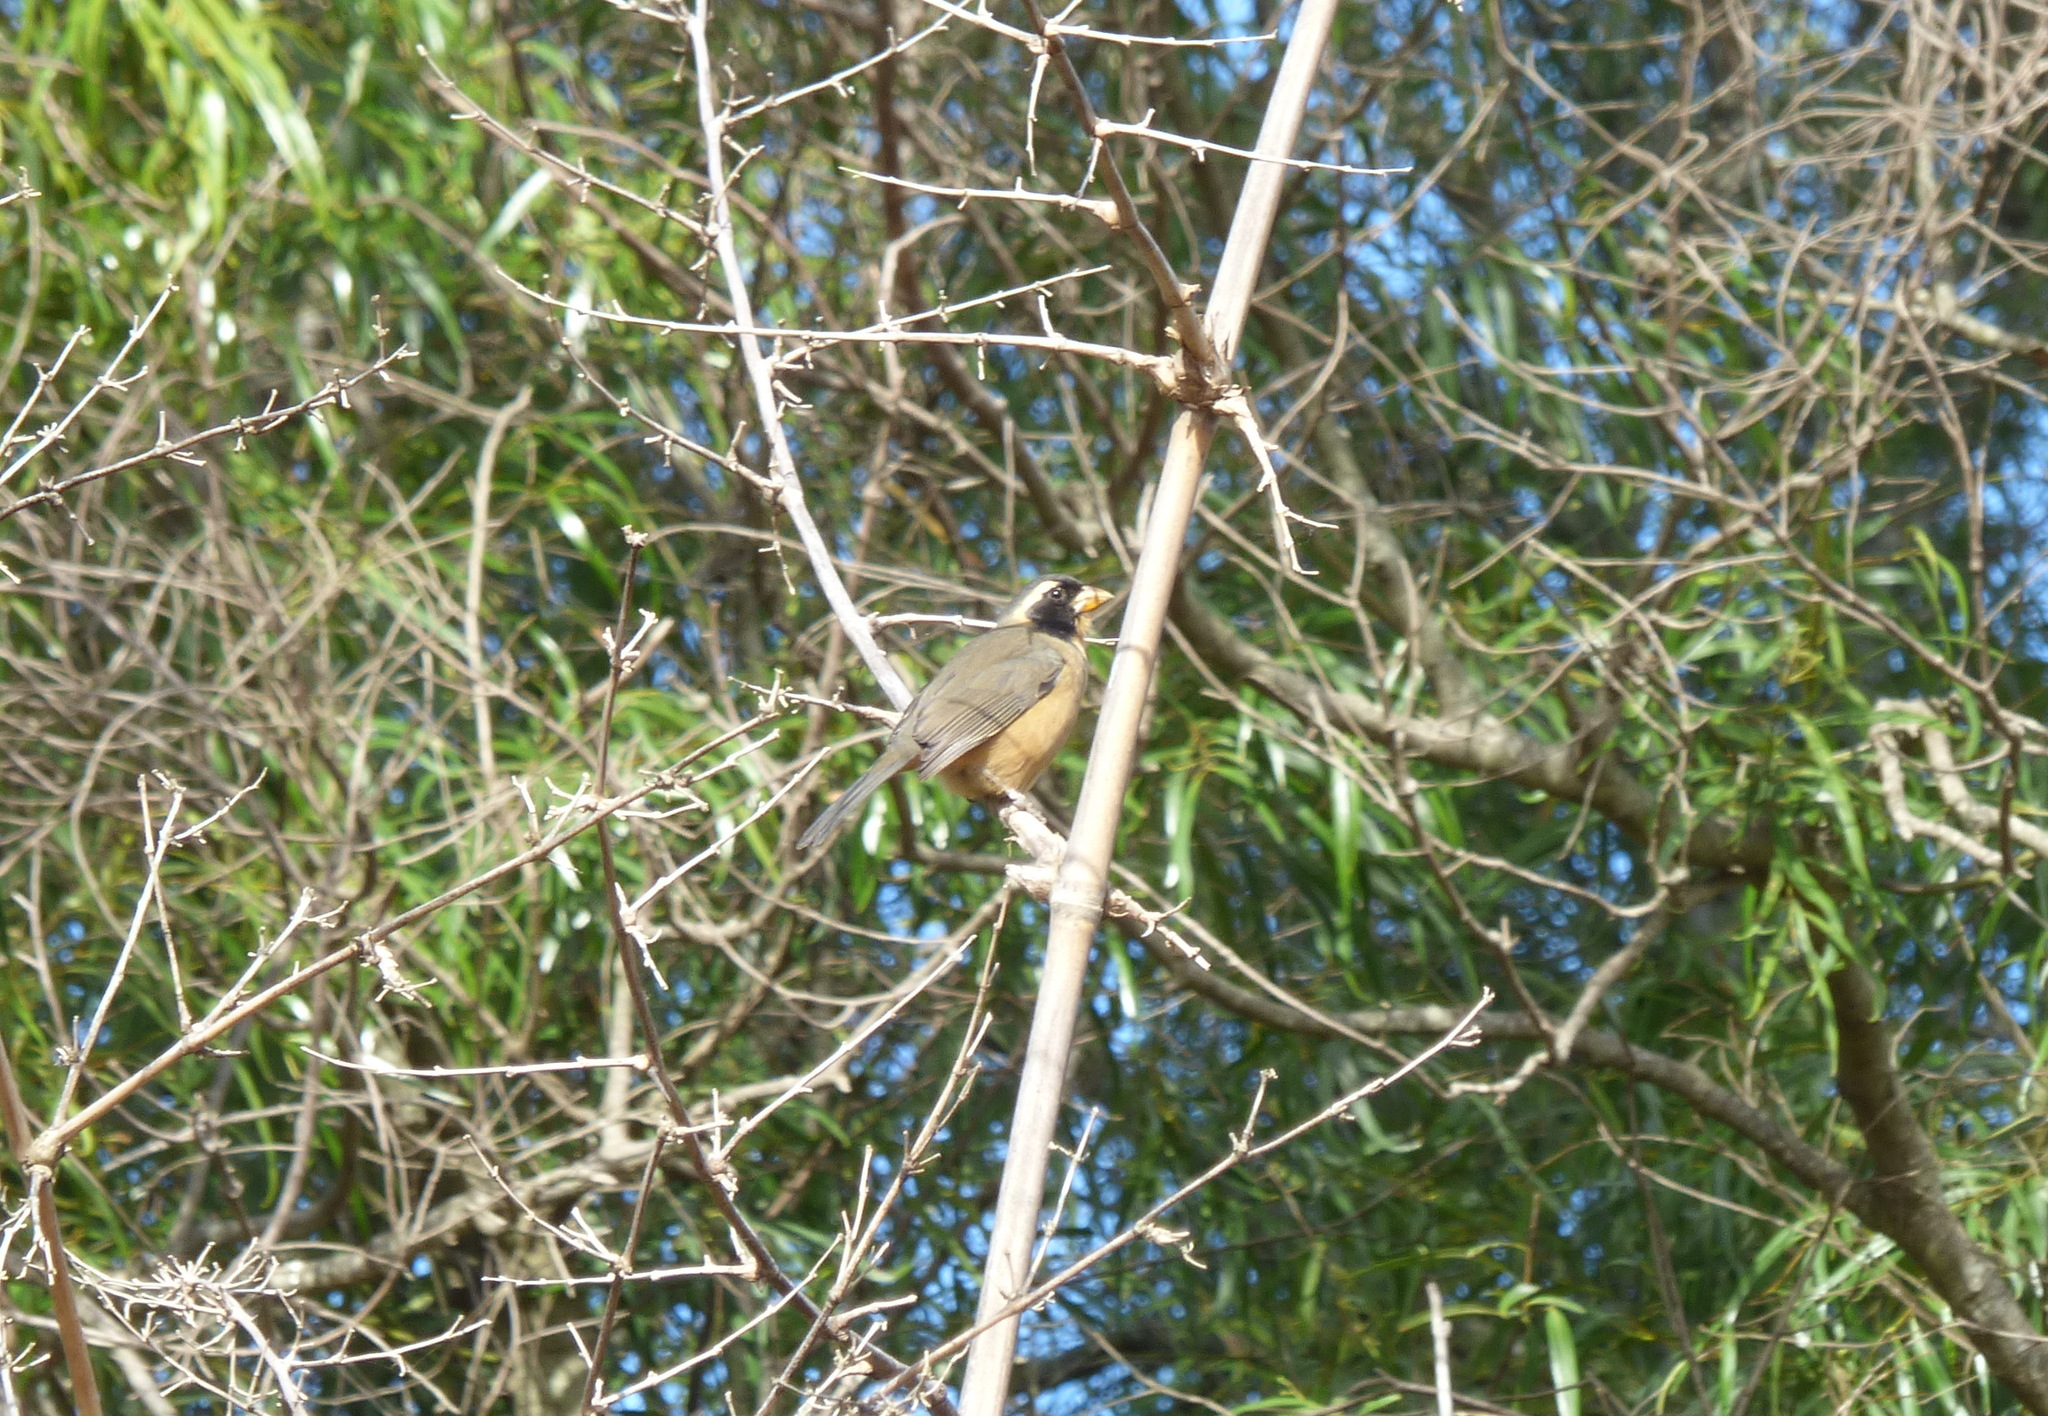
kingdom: Animalia
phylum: Chordata
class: Aves
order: Passeriformes
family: Thraupidae
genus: Saltator
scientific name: Saltator aurantiirostris
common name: Golden-billed saltator
